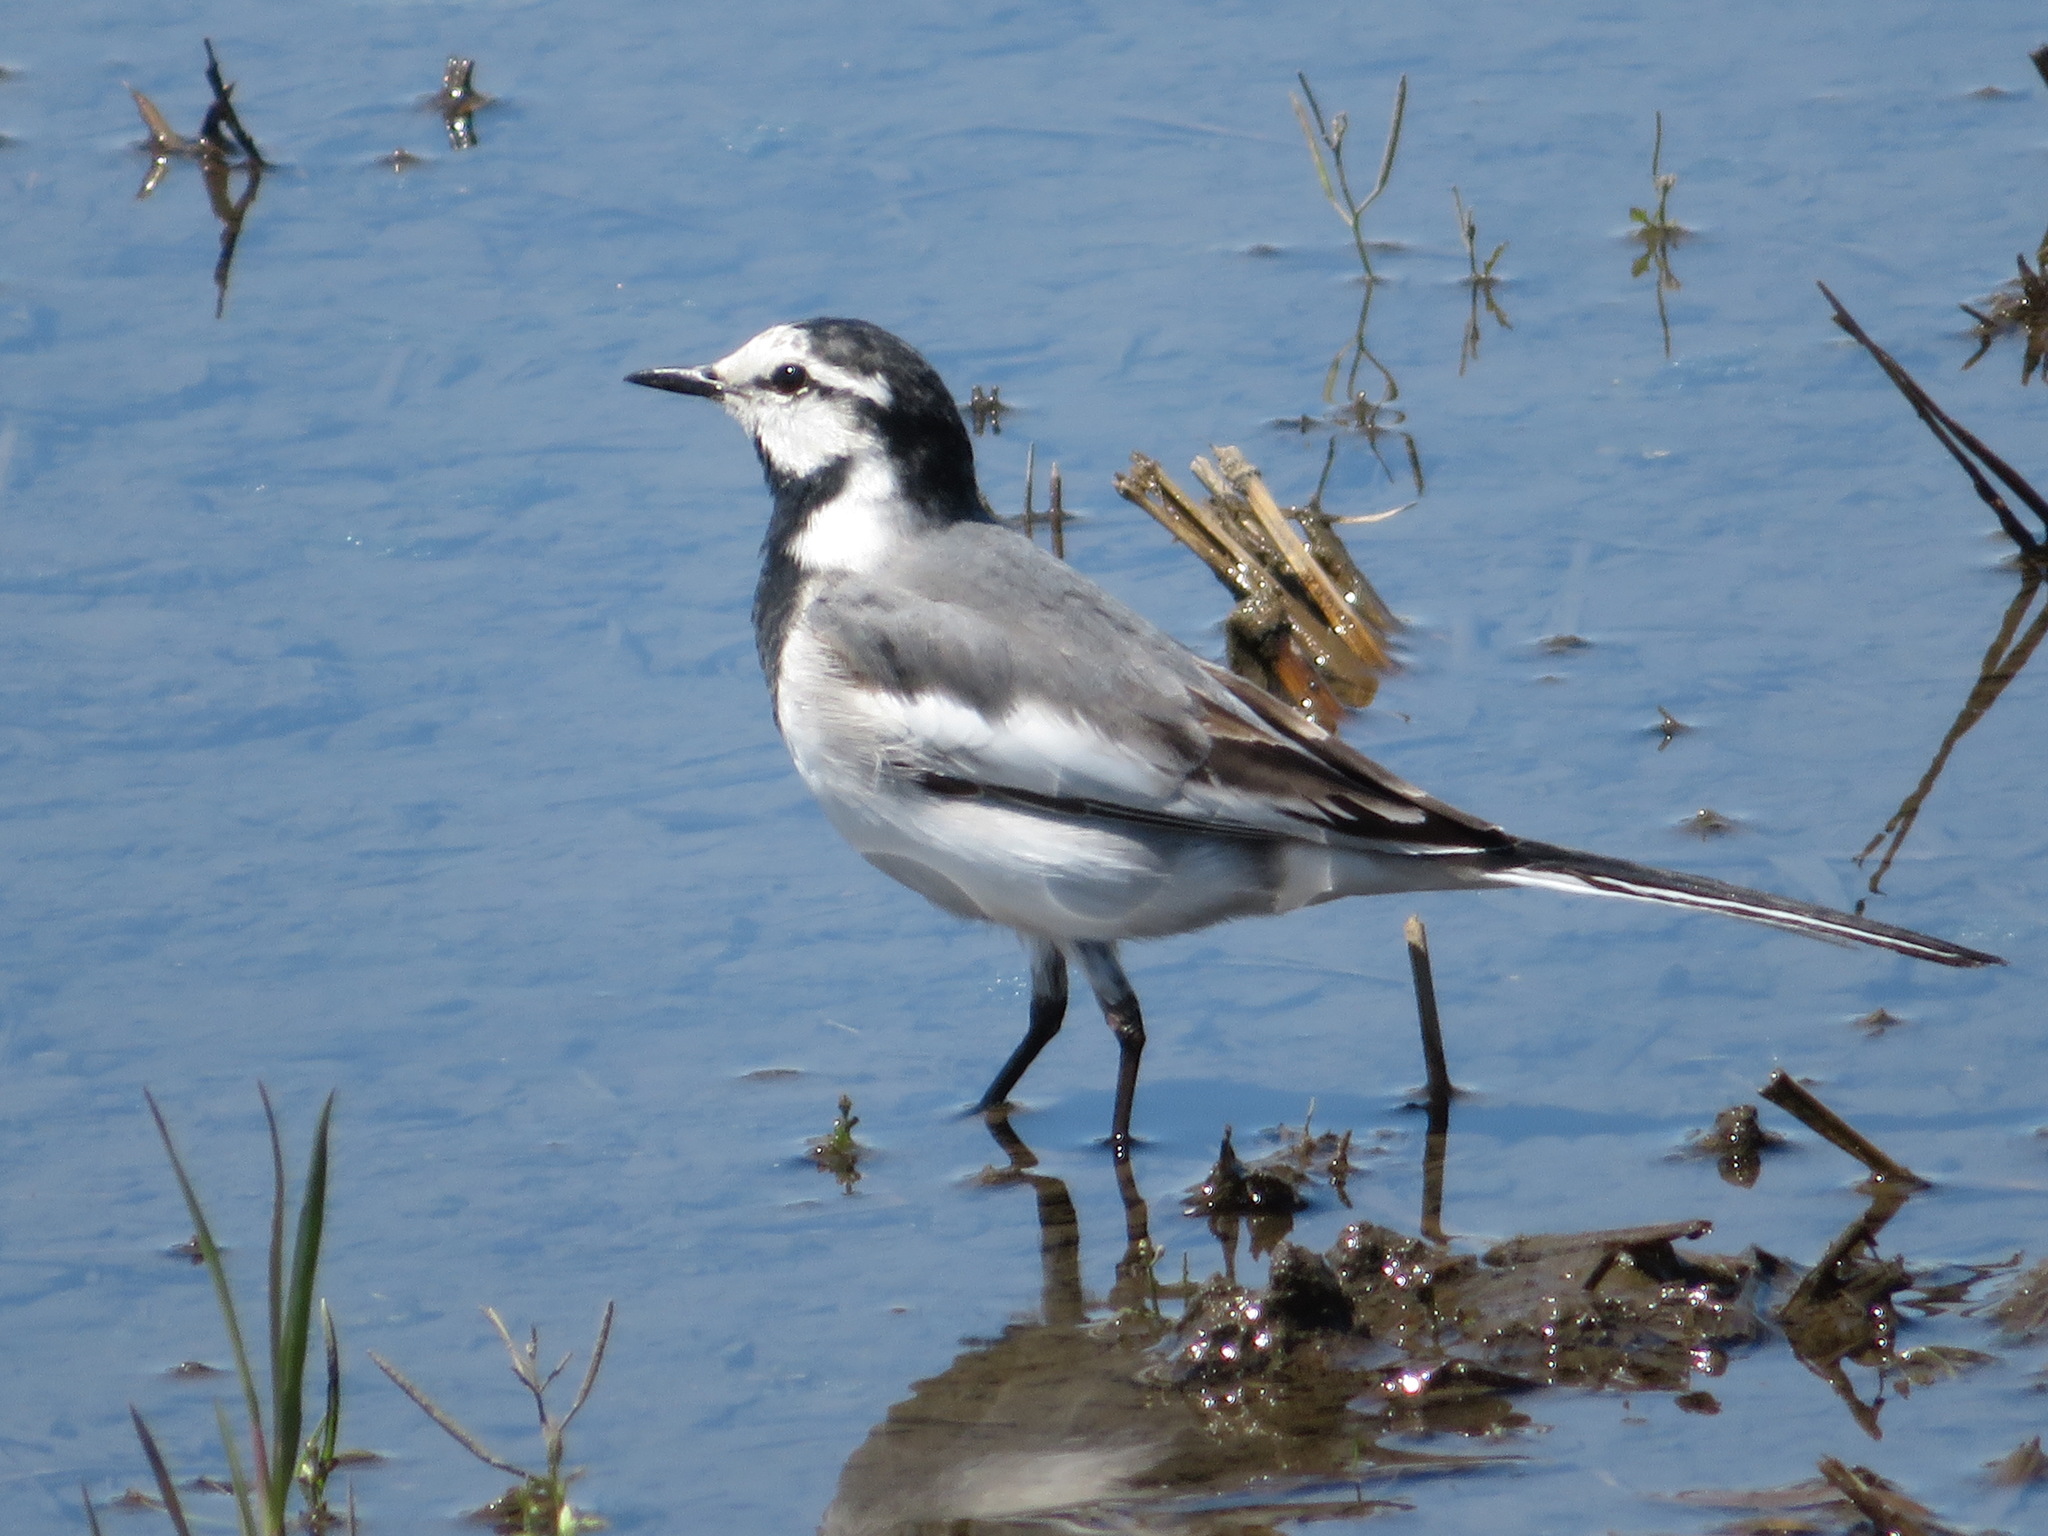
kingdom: Animalia
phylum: Chordata
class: Aves
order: Passeriformes
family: Motacillidae
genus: Motacilla
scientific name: Motacilla alba
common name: White wagtail
